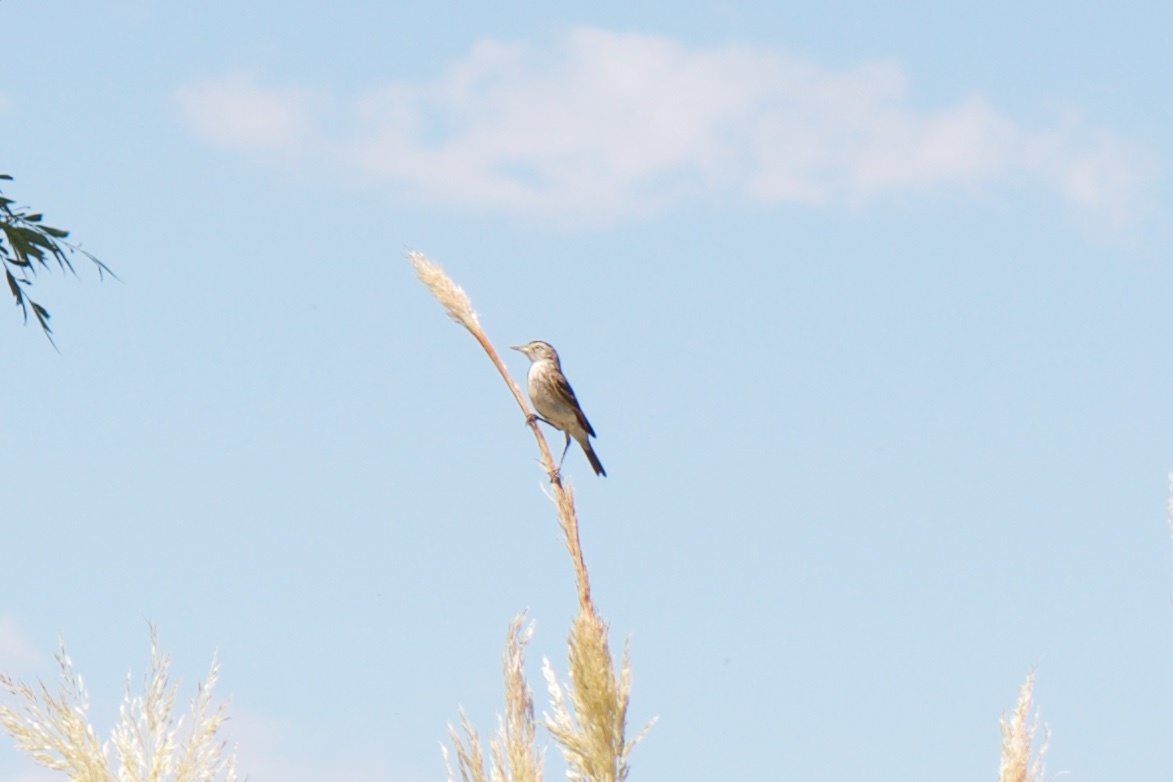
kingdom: Animalia
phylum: Chordata
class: Aves
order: Passeriformes
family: Tyrannidae
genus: Hymenops
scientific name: Hymenops perspicillatus
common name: Spectacled tyrant
